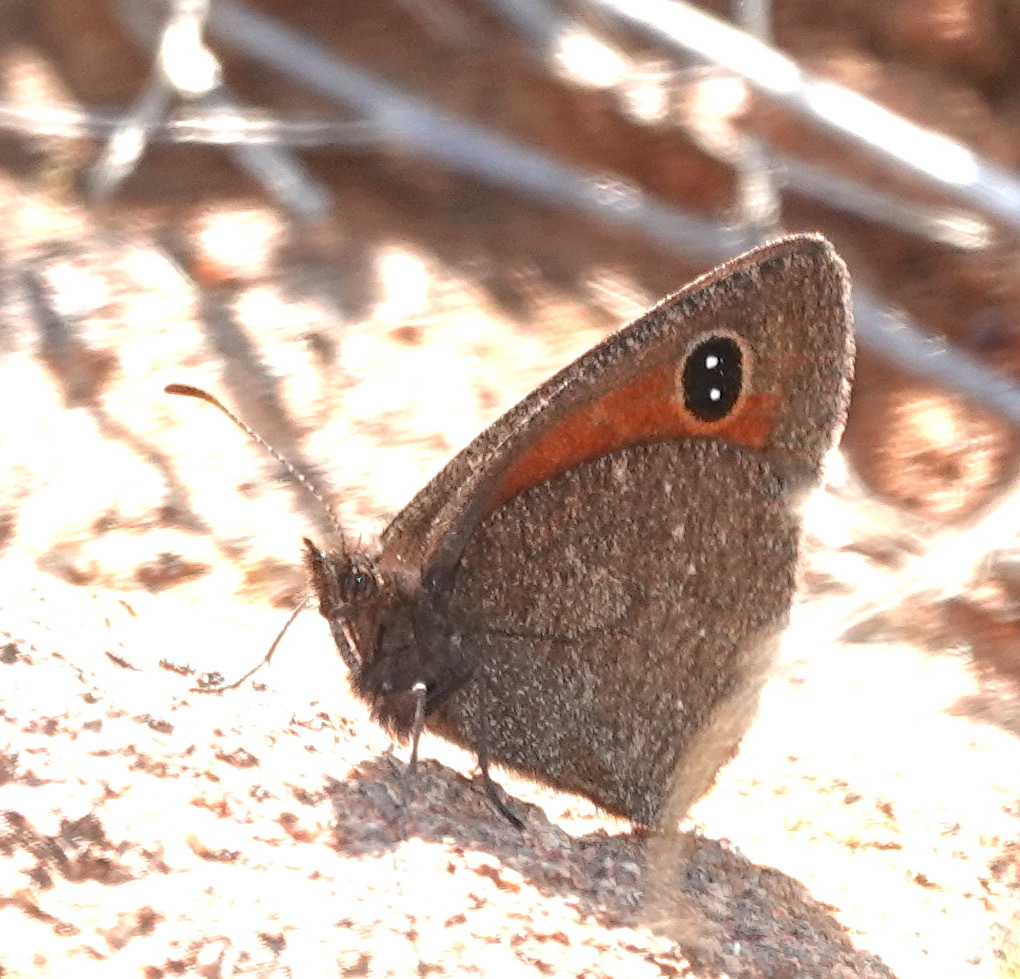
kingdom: Animalia
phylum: Arthropoda
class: Insecta
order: Lepidoptera
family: Nymphalidae
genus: Stygionympha
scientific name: Stygionympha irrorata
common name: Karoo hillside brown
